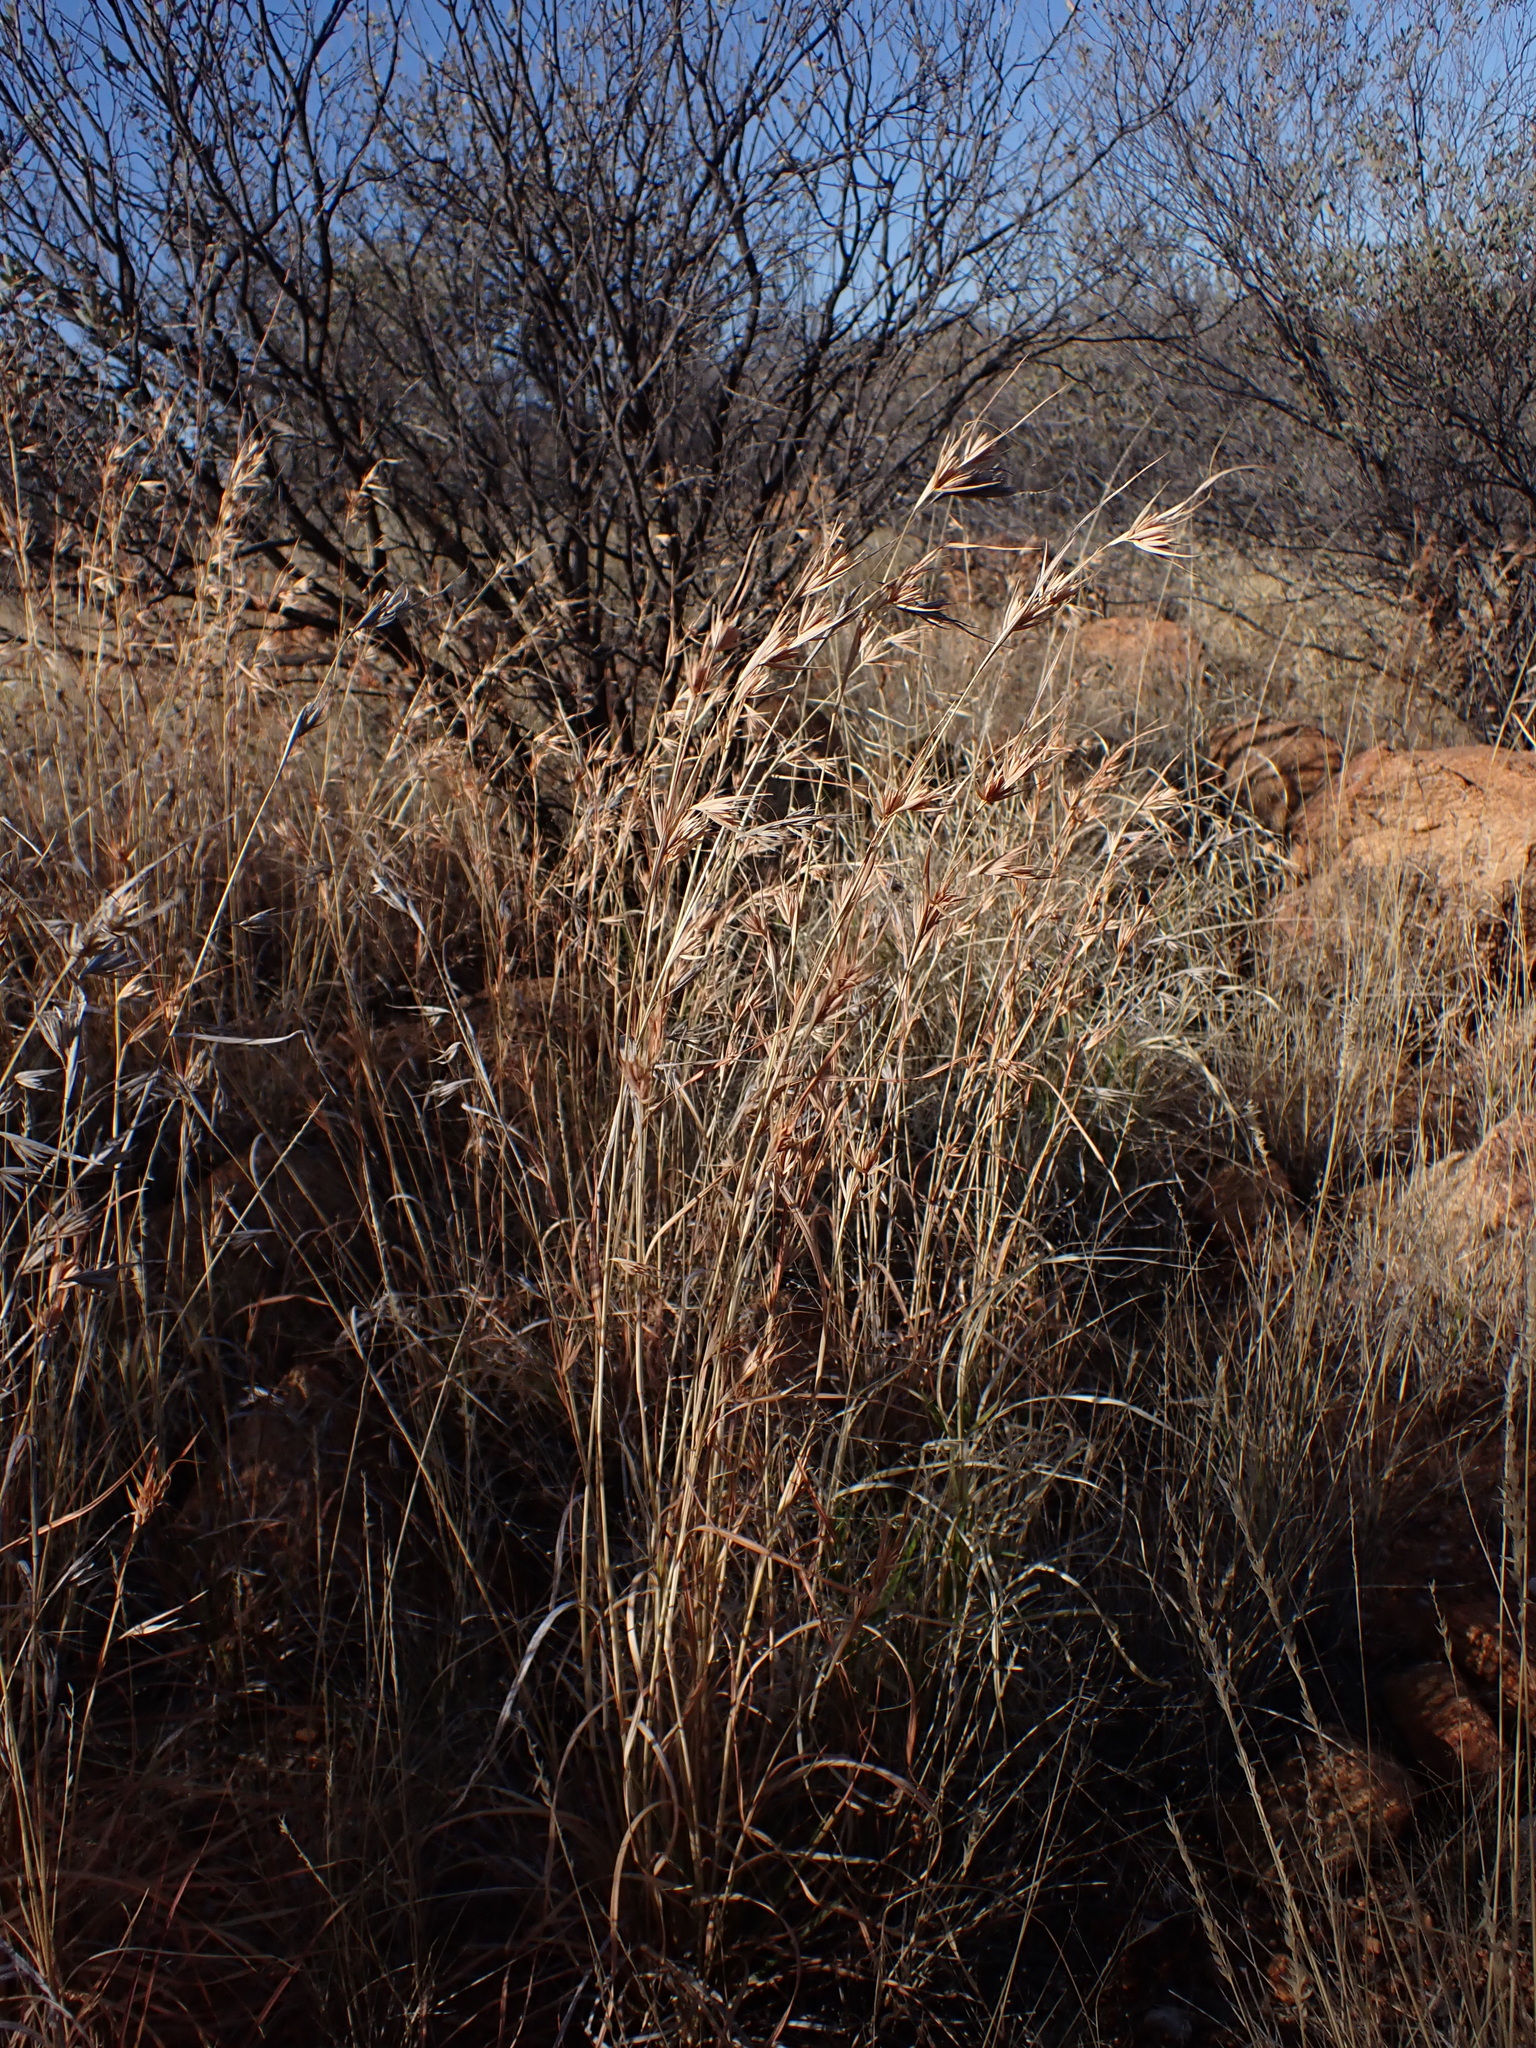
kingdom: Plantae
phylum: Tracheophyta
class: Liliopsida
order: Poales
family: Poaceae
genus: Themeda
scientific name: Themeda triandra
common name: Kangaroo grass
